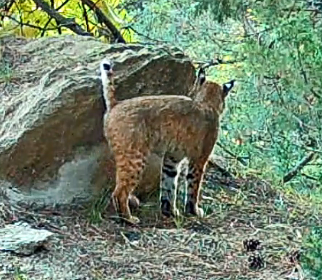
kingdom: Animalia
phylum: Chordata
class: Mammalia
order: Carnivora
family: Felidae
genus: Lynx
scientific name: Lynx rufus
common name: Bobcat
